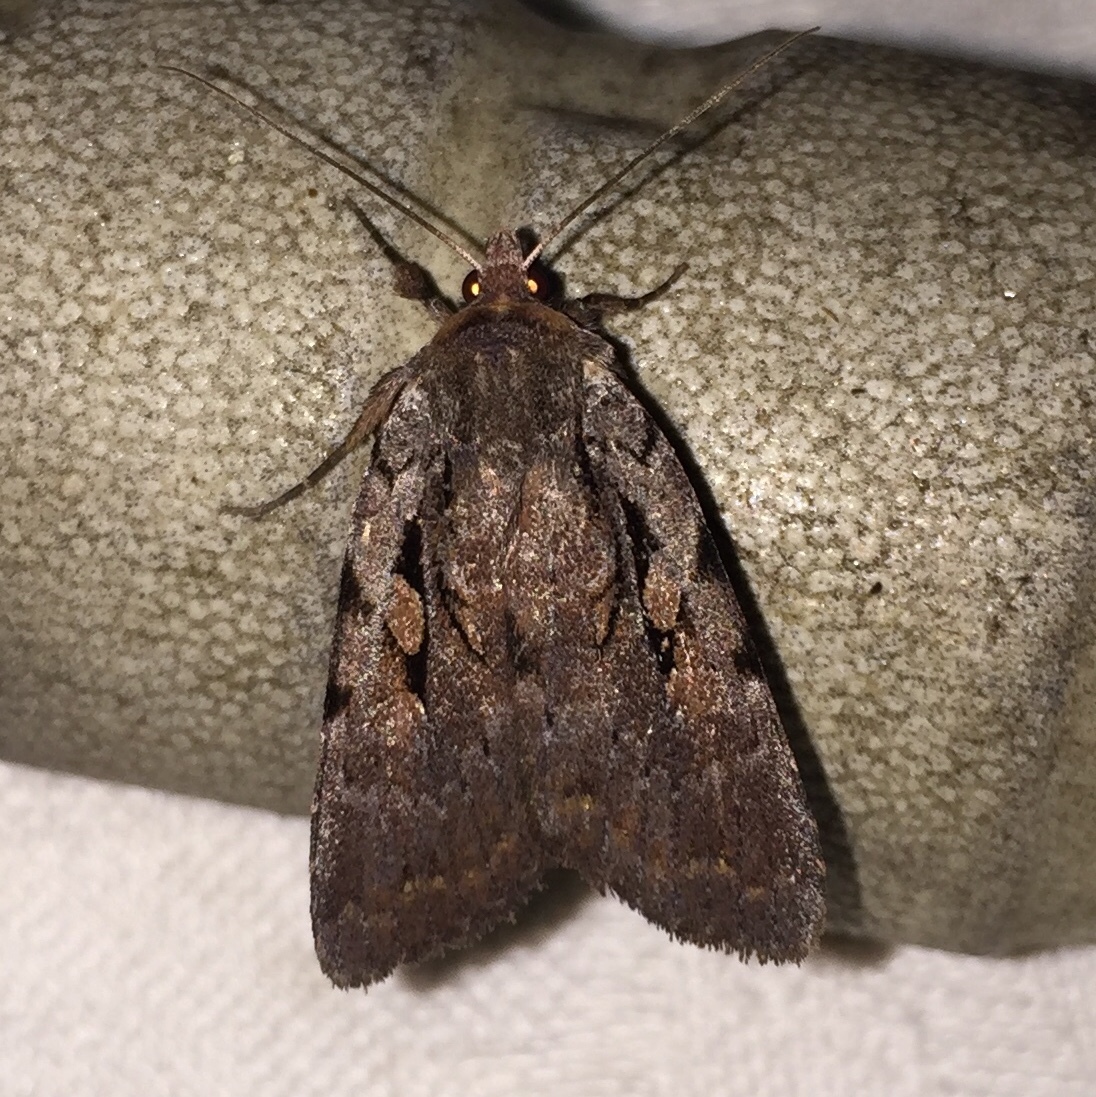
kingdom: Animalia
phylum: Arthropoda
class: Insecta
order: Lepidoptera
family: Noctuidae
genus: Eueretagrotis
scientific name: Eueretagrotis perattentus
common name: Two-spot dart moth
